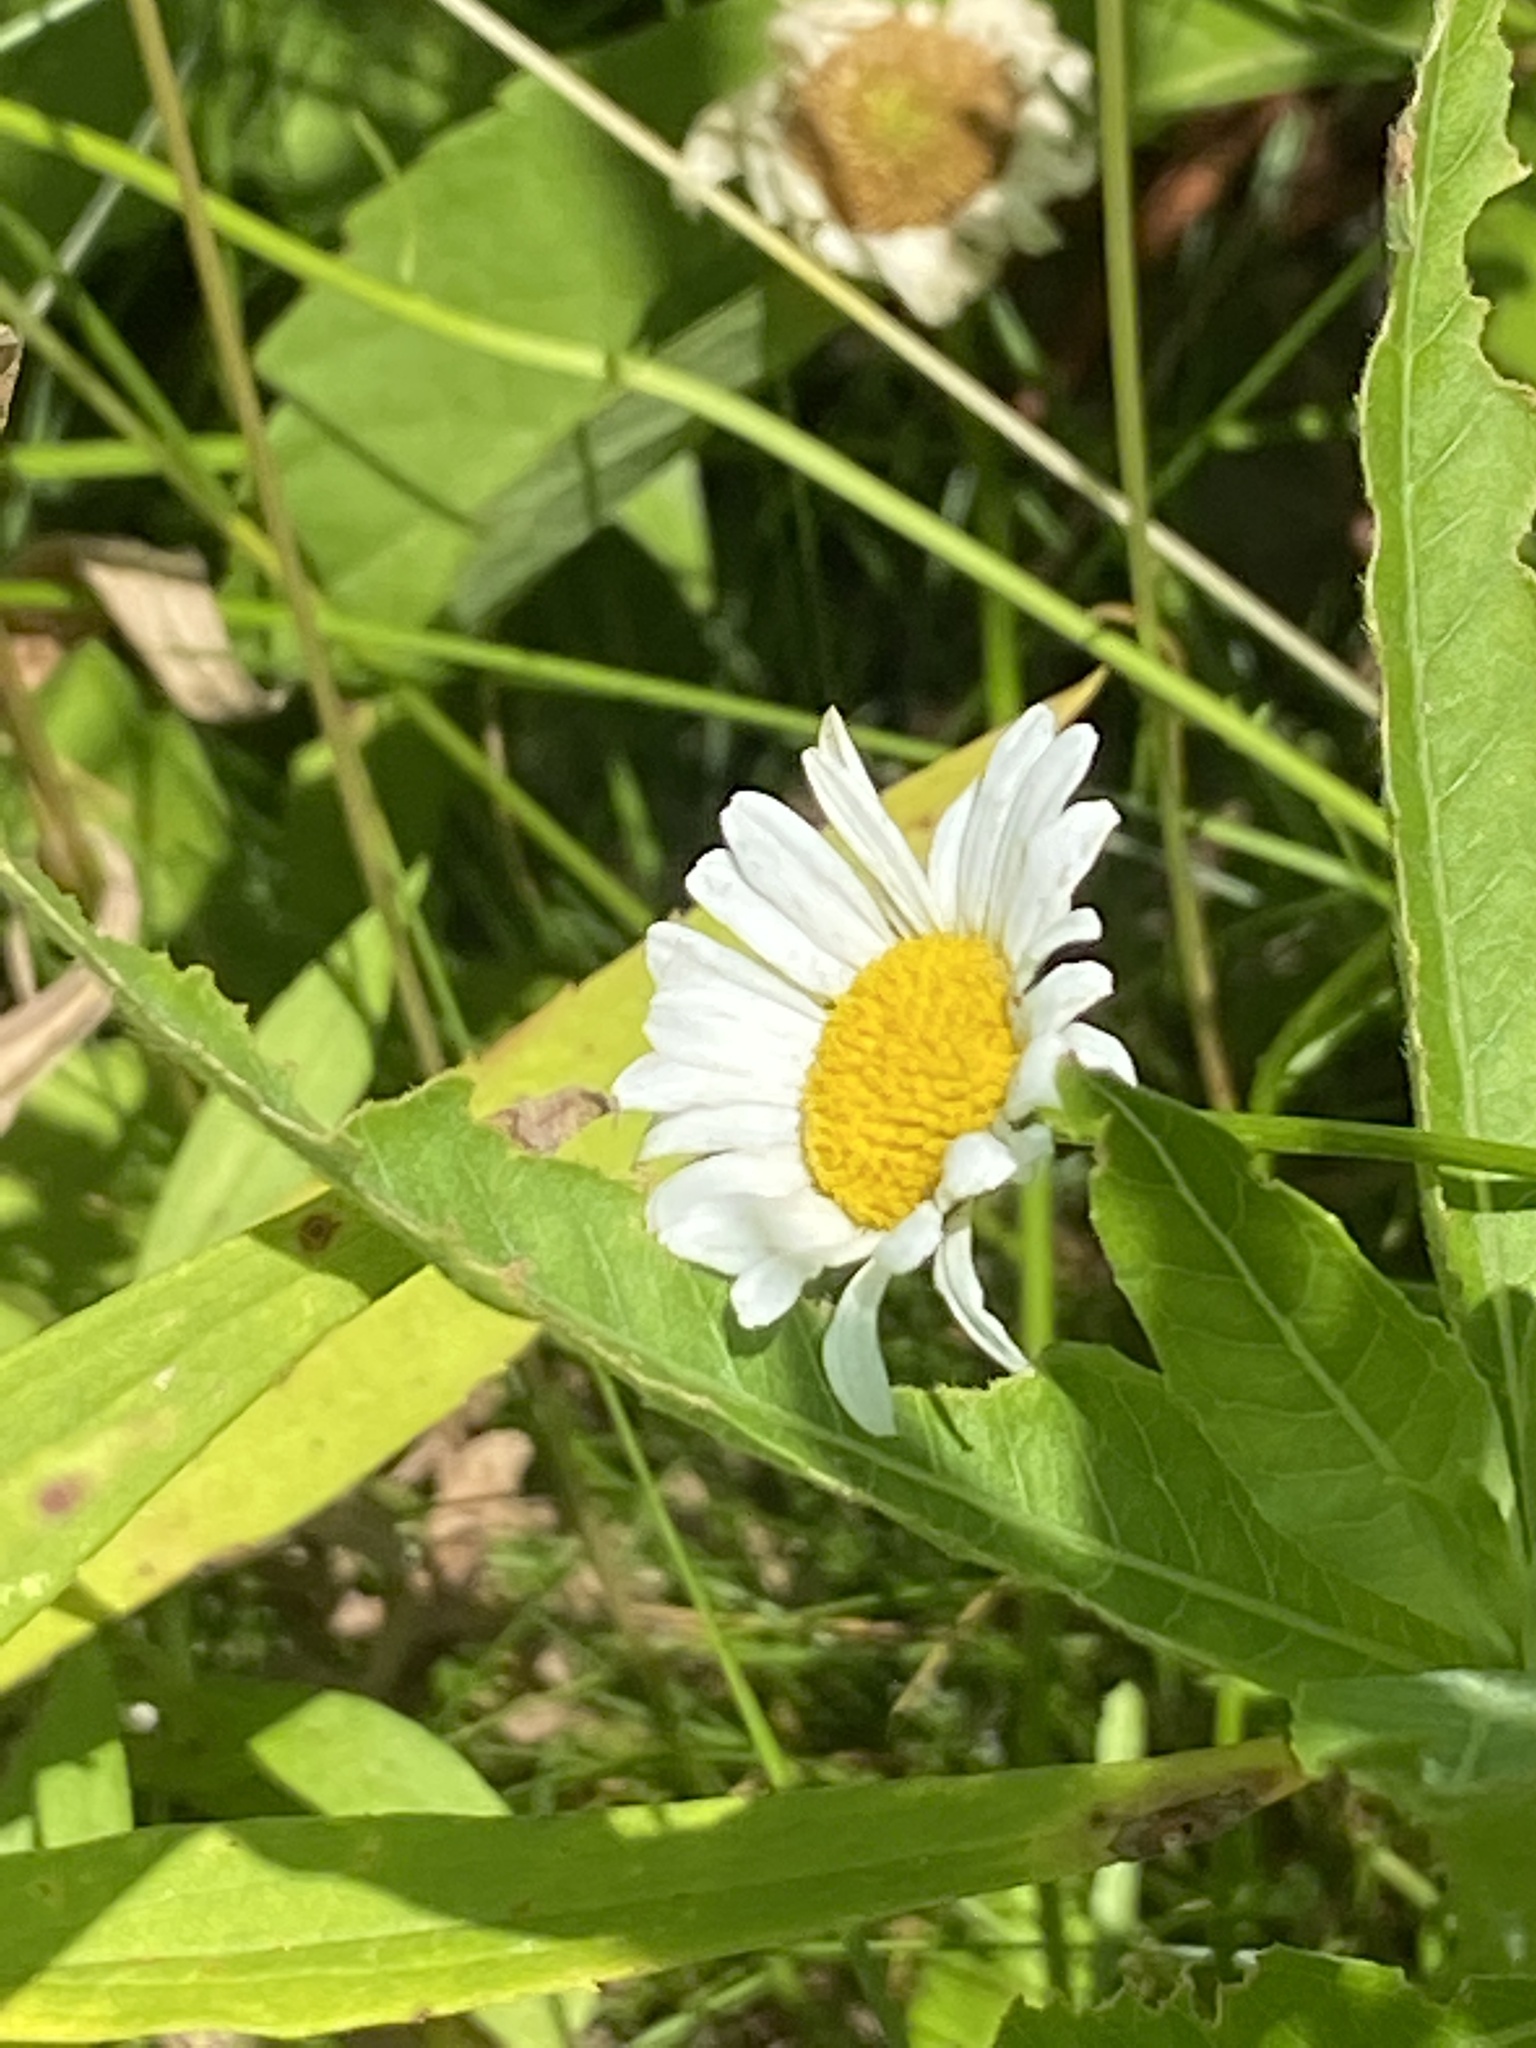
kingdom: Plantae
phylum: Tracheophyta
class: Magnoliopsida
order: Asterales
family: Asteraceae
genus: Leucanthemum
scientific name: Leucanthemum vulgare
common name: Oxeye daisy
